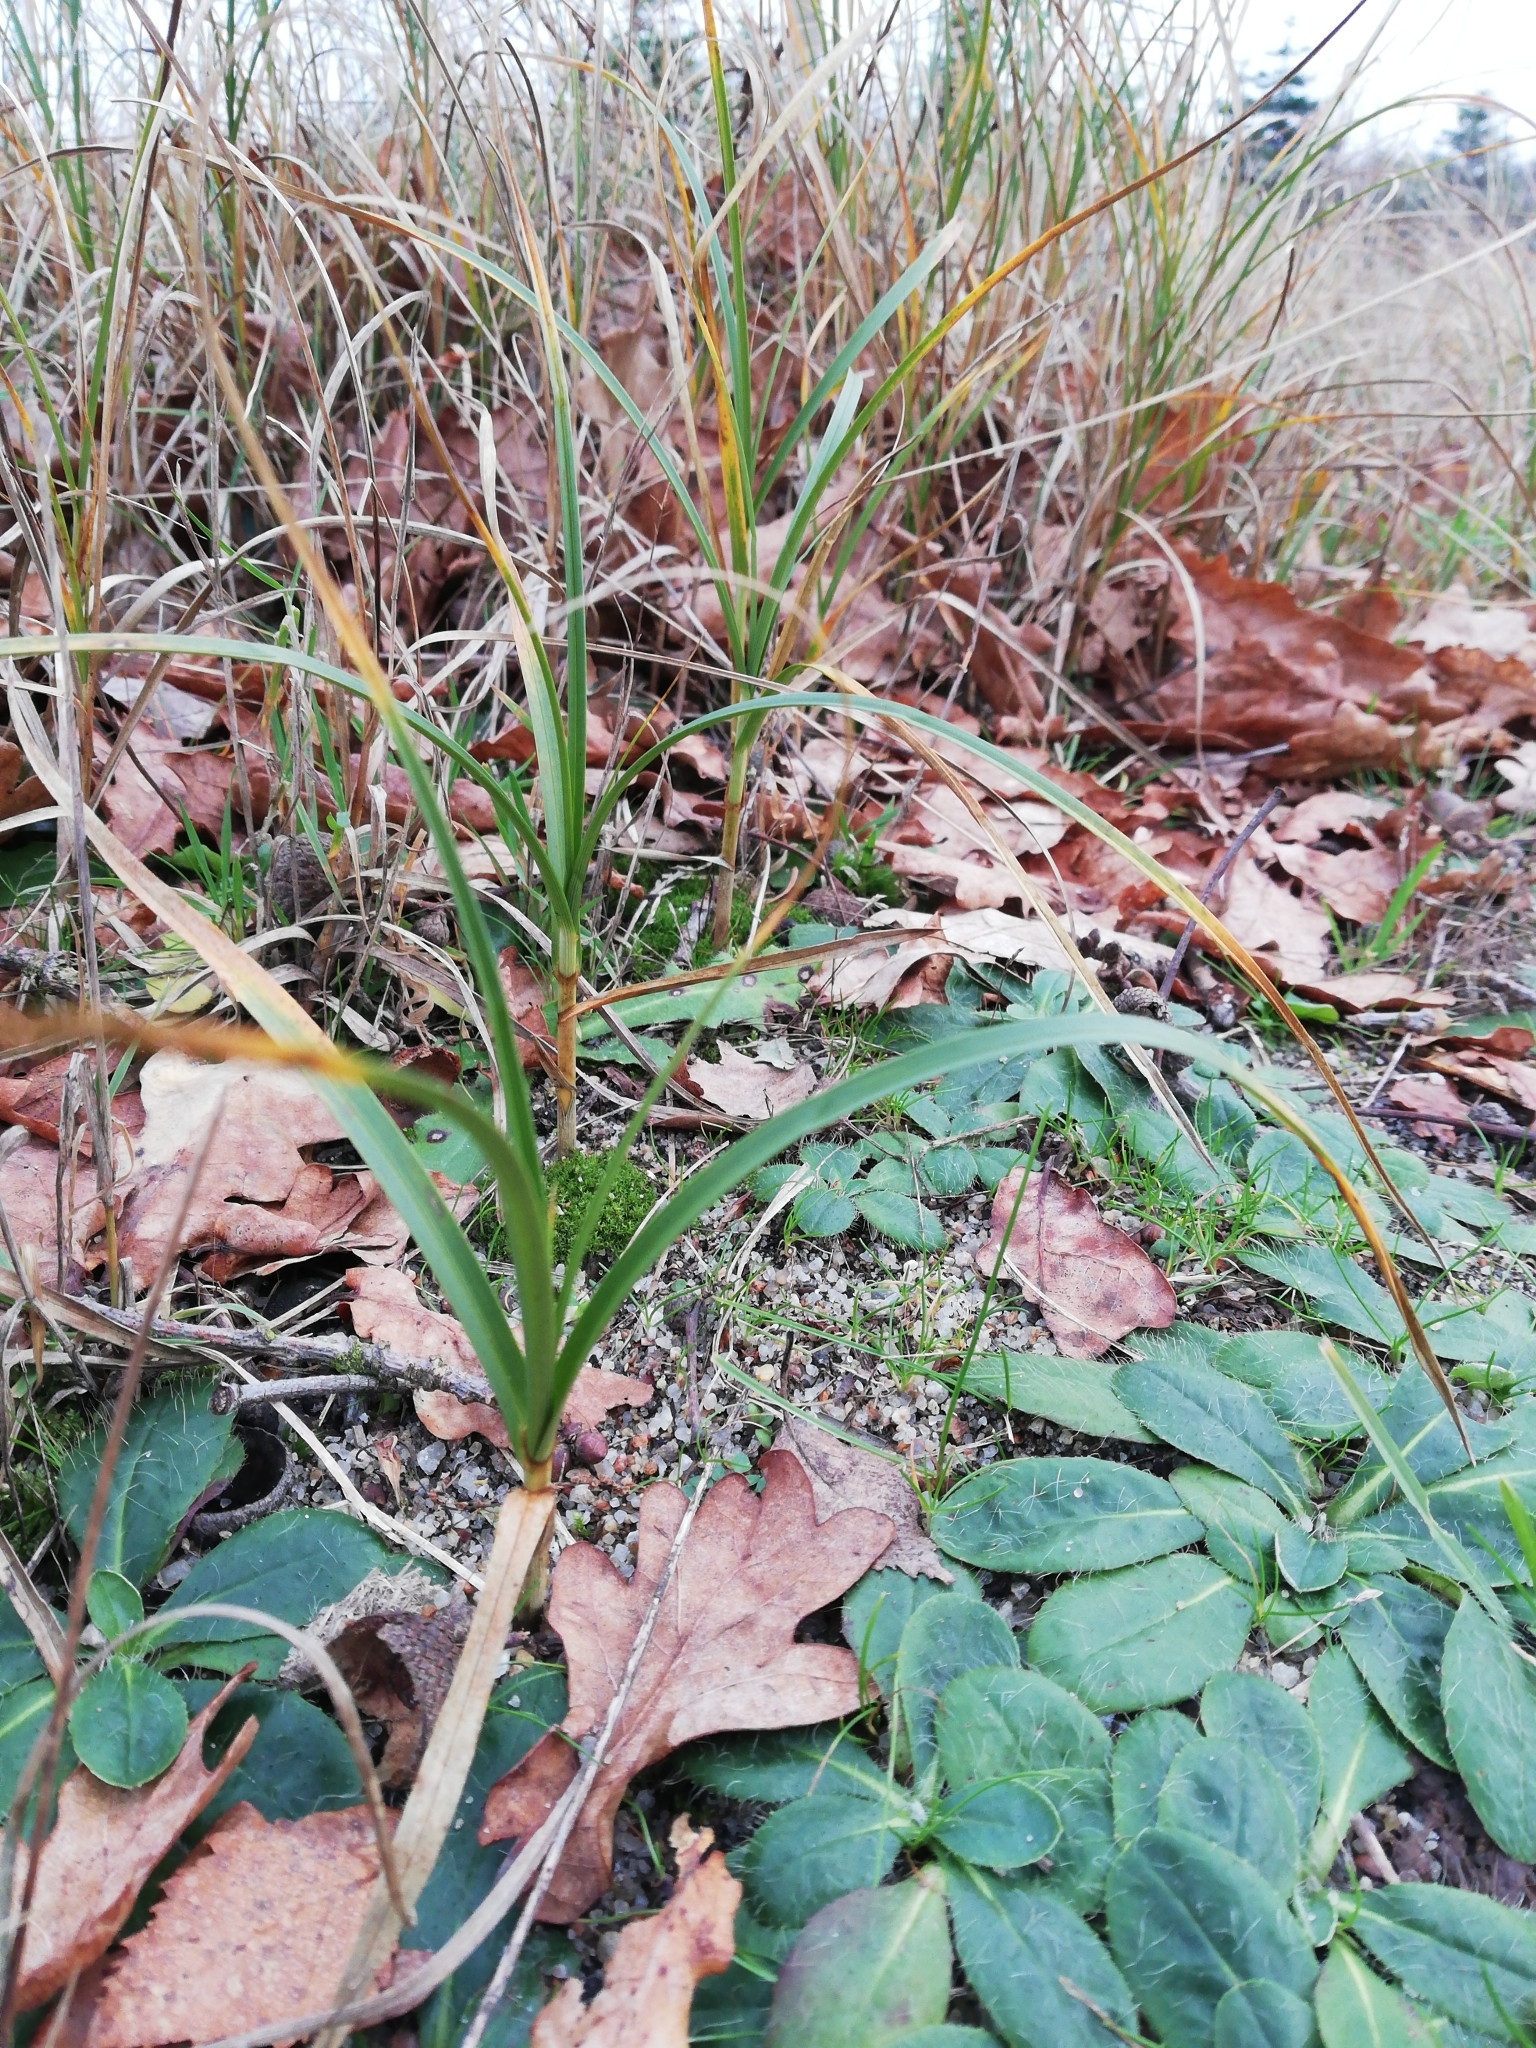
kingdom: Plantae
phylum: Tracheophyta
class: Liliopsida
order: Poales
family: Cyperaceae
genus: Carex
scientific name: Carex arenaria
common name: Sand sedge
